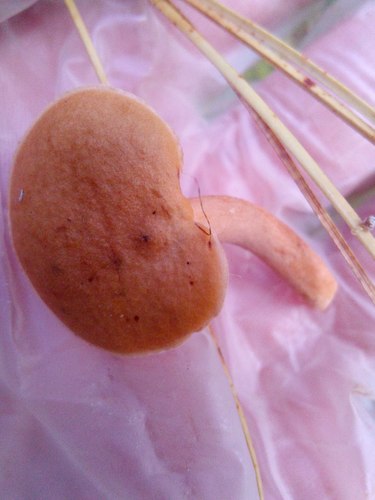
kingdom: Fungi
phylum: Basidiomycota
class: Agaricomycetes
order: Russulales
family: Russulaceae
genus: Lactarius
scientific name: Lactarius aurantiacus
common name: Orange milkcap
